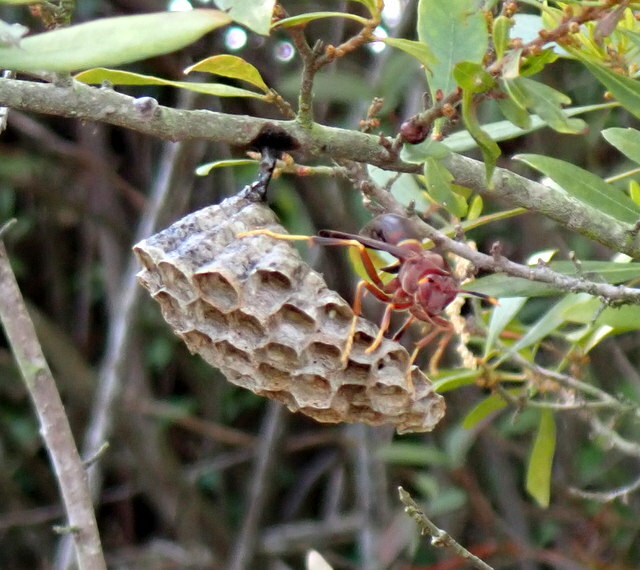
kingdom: Animalia
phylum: Arthropoda
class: Insecta
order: Hymenoptera
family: Eumenidae
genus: Polistes
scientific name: Polistes annularis
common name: Ringed paper wasp
